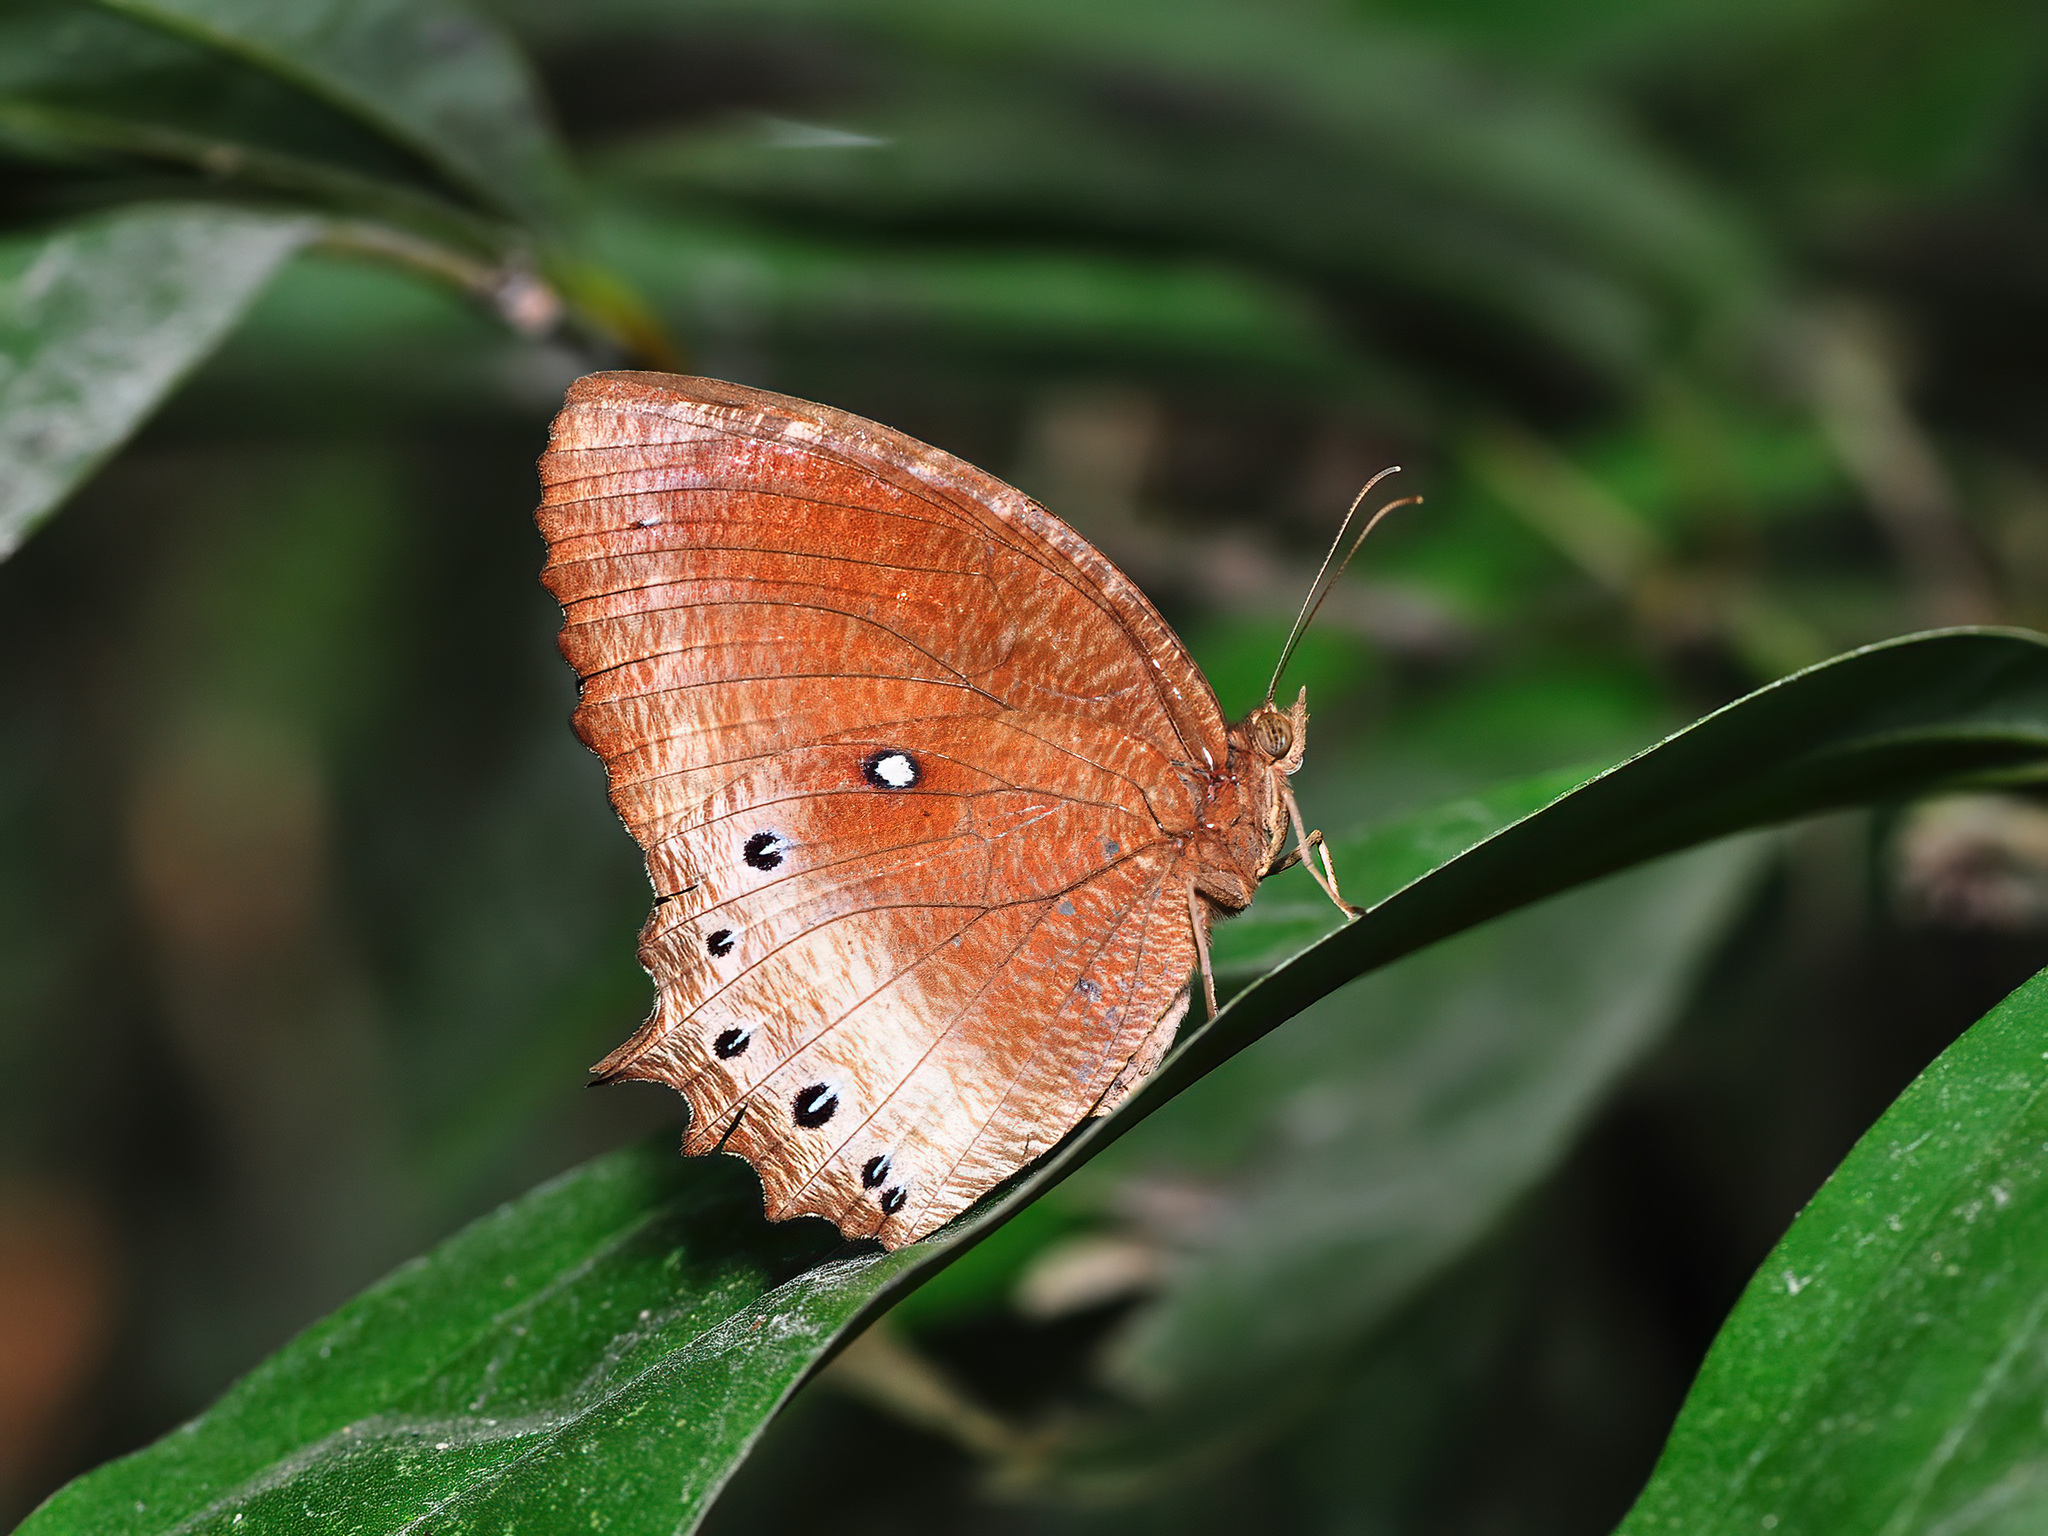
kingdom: Animalia
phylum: Arthropoda
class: Insecta
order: Lepidoptera
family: Nymphalidae
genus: Elymnias
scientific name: Elymnias panthera
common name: Tawny palmfly
